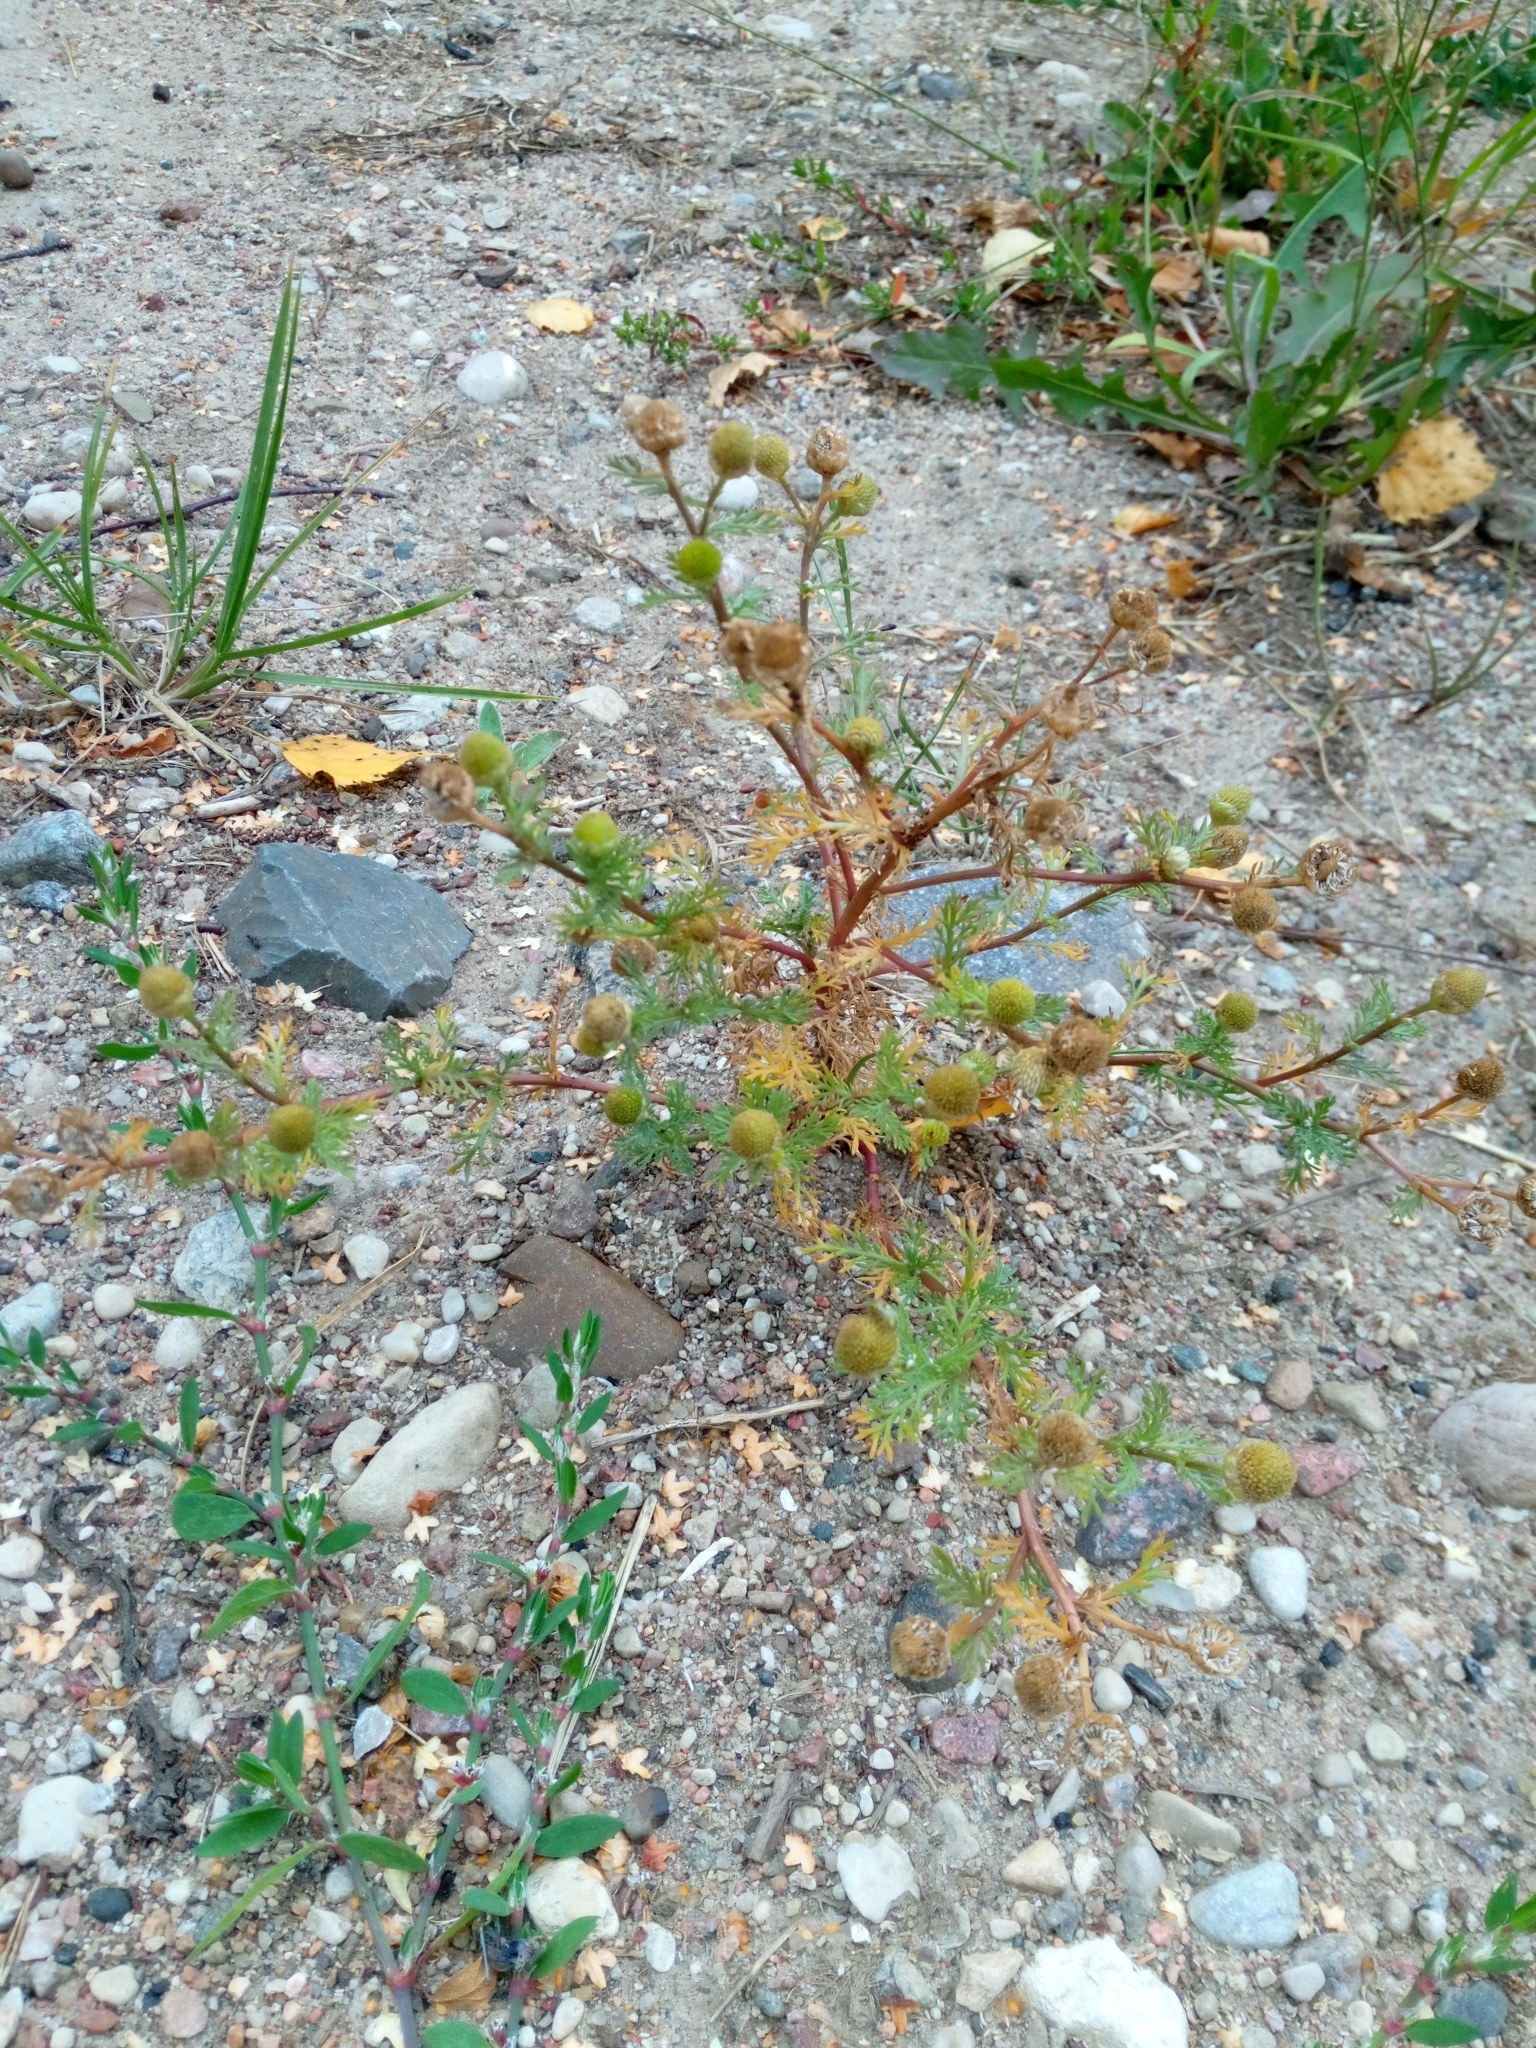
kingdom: Plantae
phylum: Tracheophyta
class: Magnoliopsida
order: Asterales
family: Asteraceae
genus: Matricaria
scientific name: Matricaria discoidea
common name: Disc mayweed
